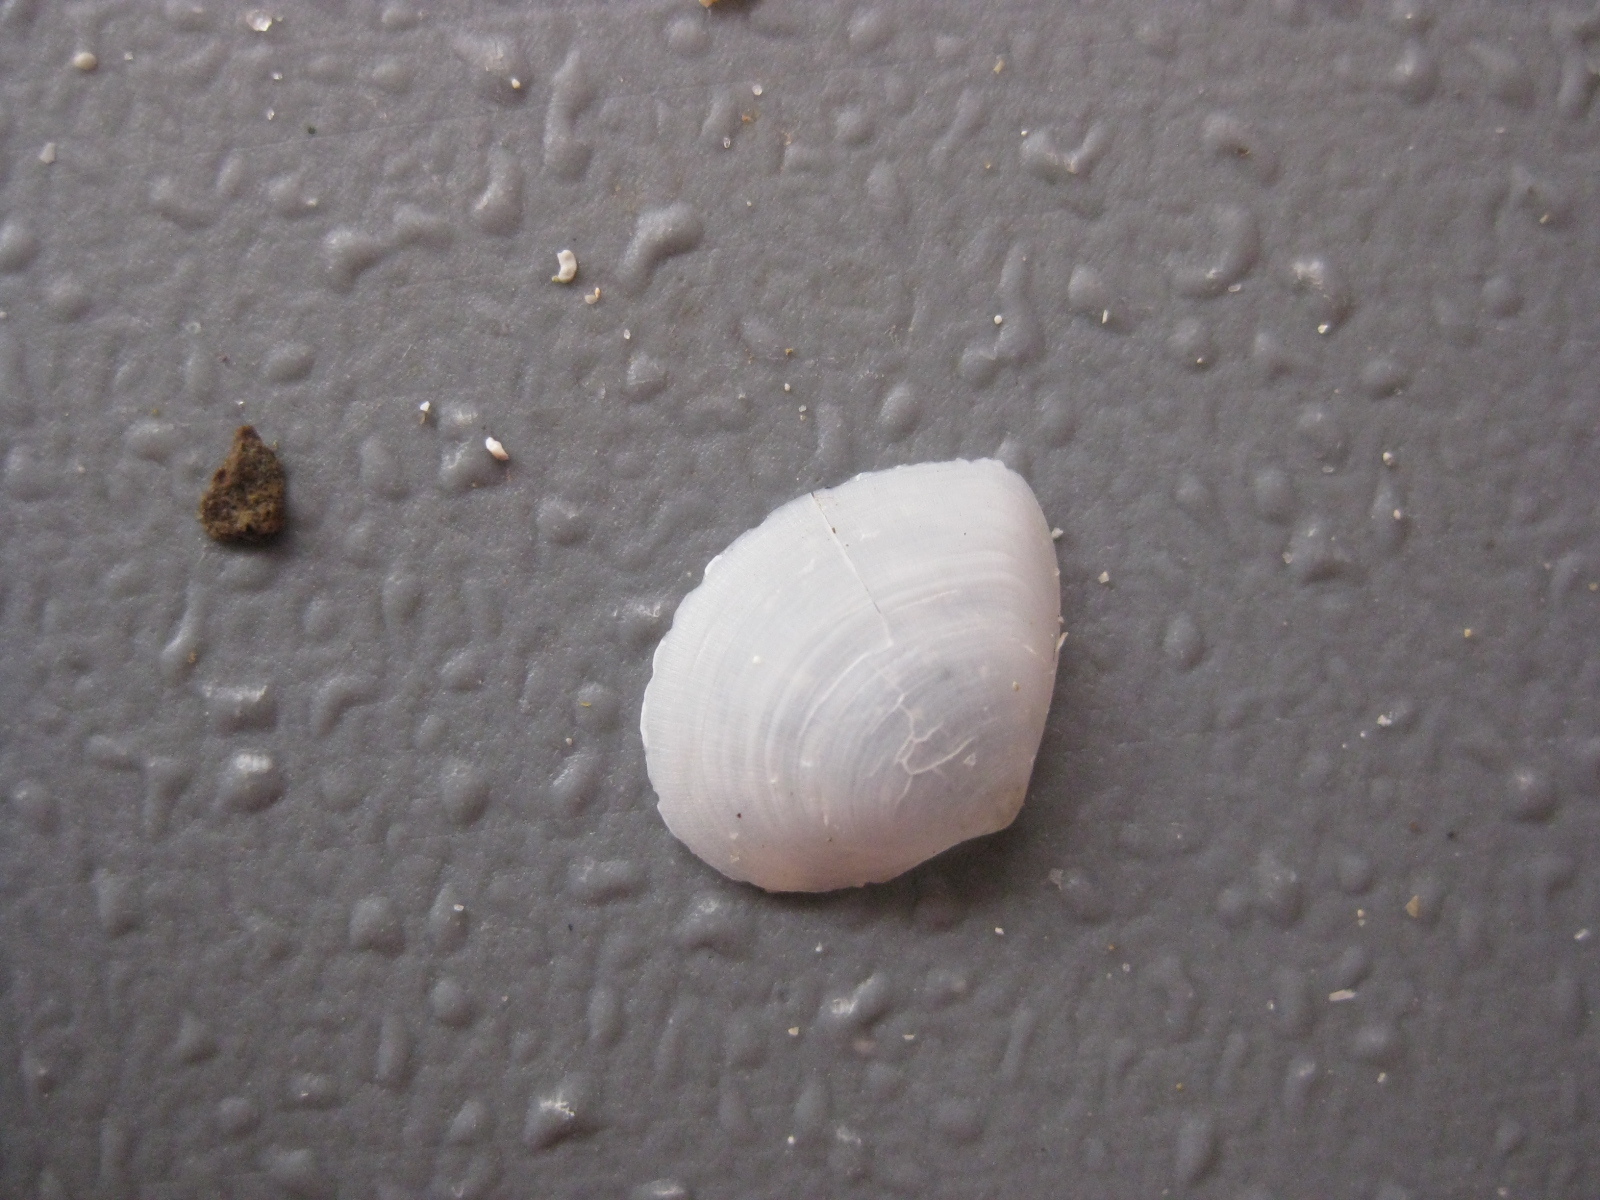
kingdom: Animalia
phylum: Mollusca
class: Bivalvia
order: Cardiida
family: Semelidae
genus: Leptomya
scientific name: Leptomya retiaria
